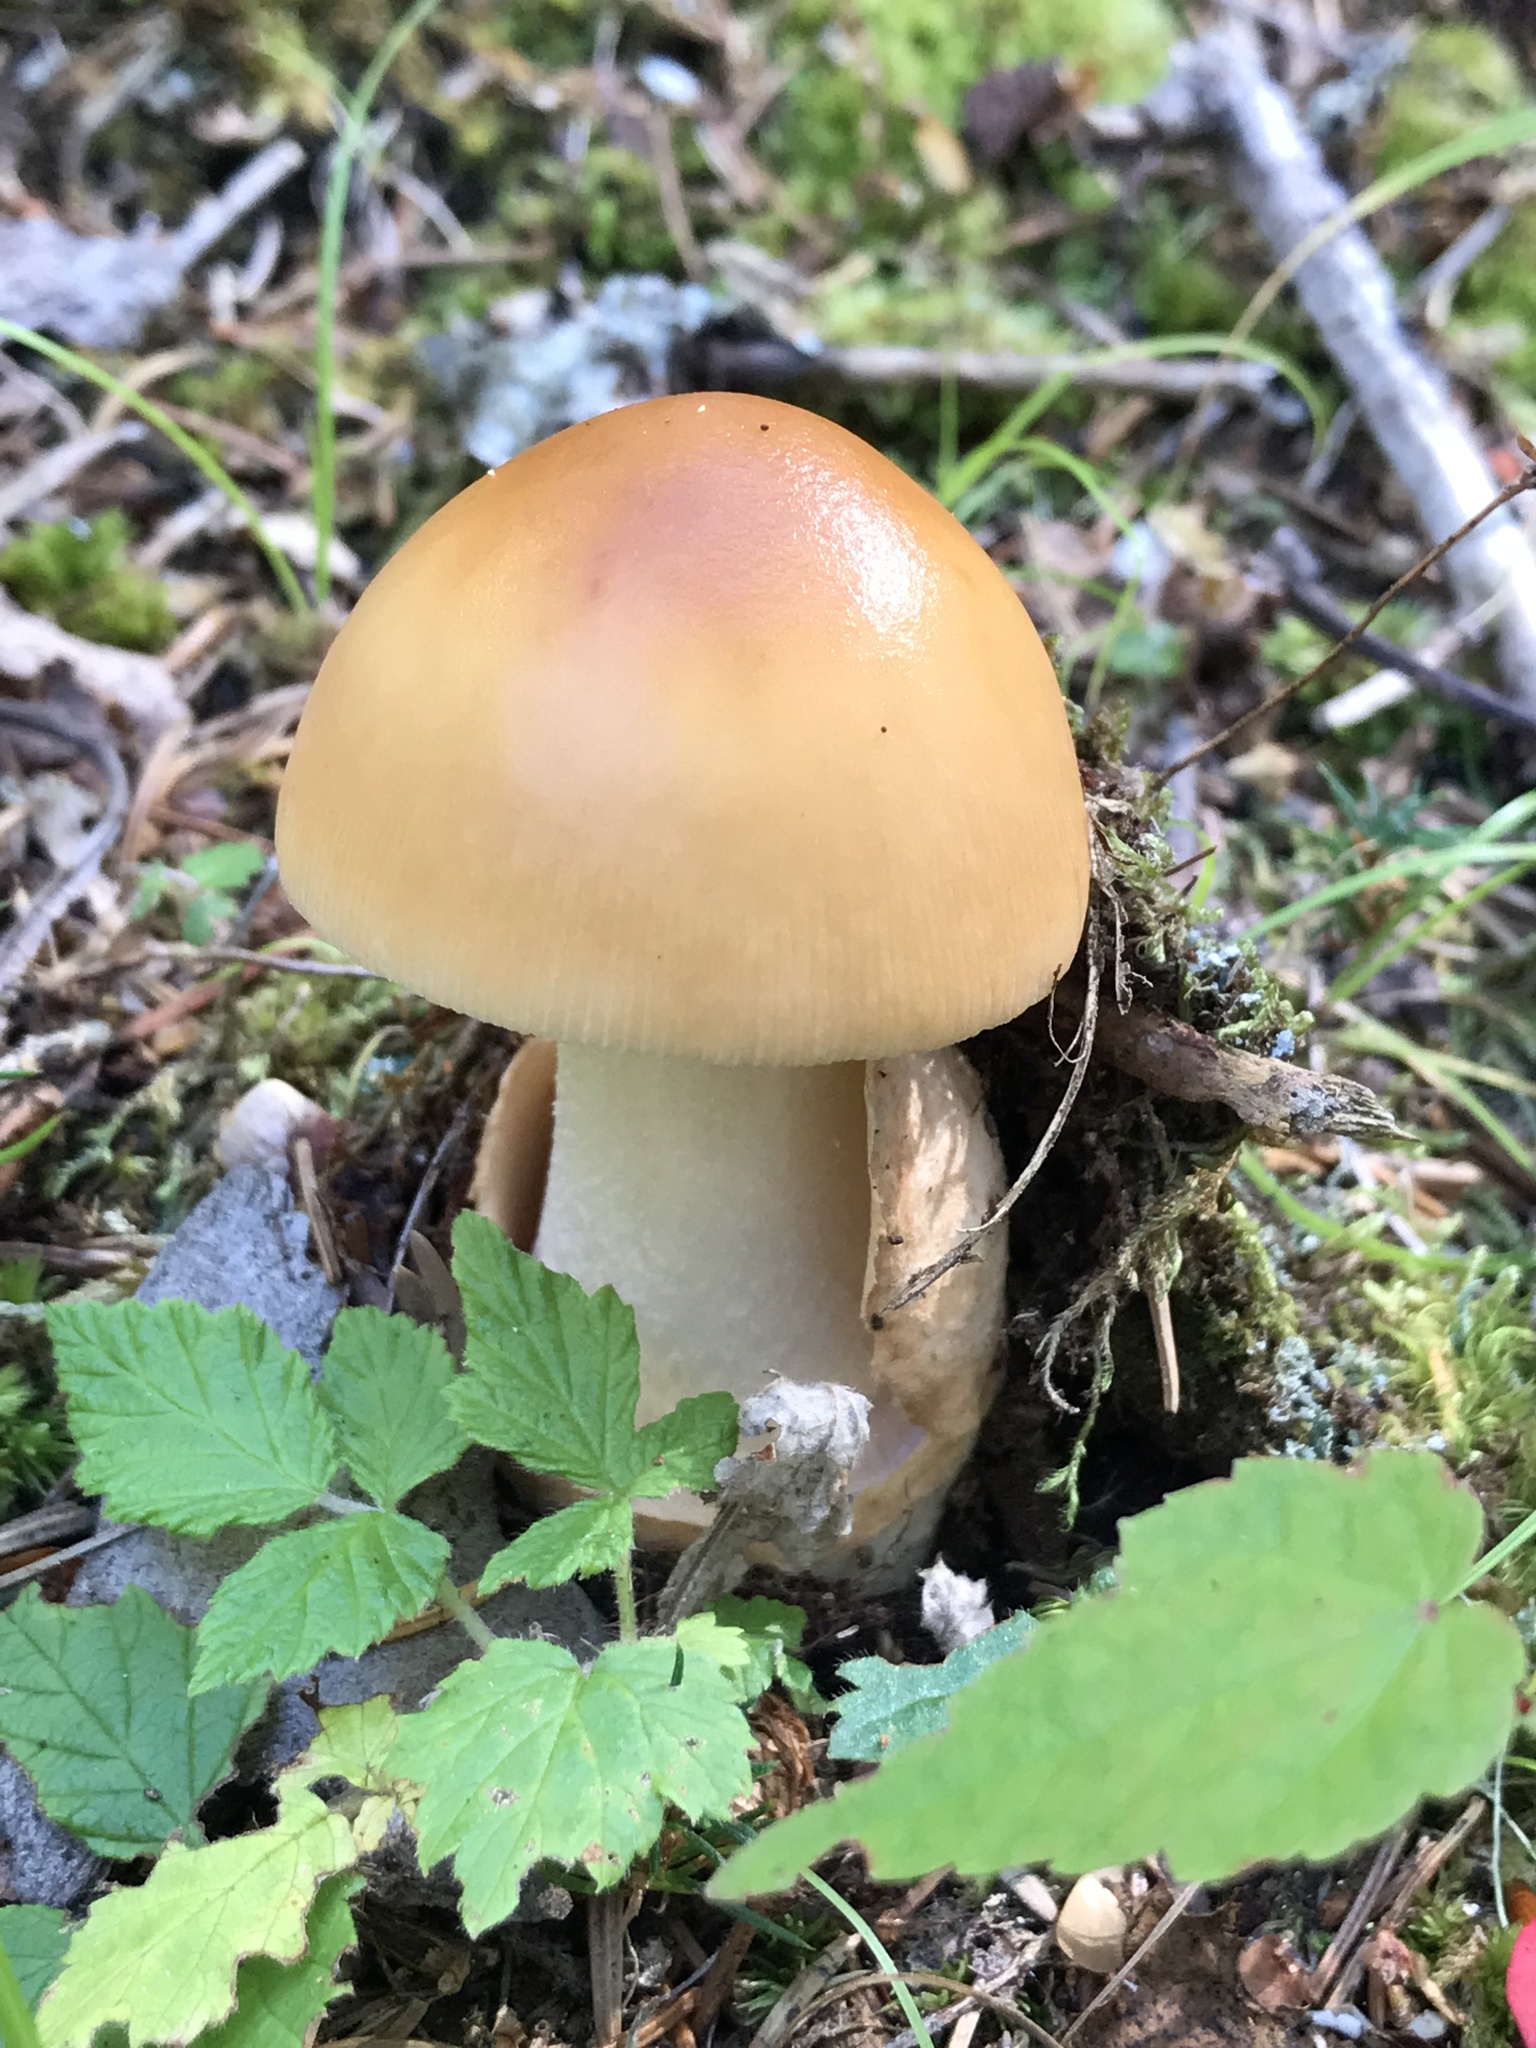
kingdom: Fungi
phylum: Basidiomycota
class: Agaricomycetes
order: Agaricales
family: Amanitaceae
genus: Amanita
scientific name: Amanita fulva
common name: Tawny grisette
